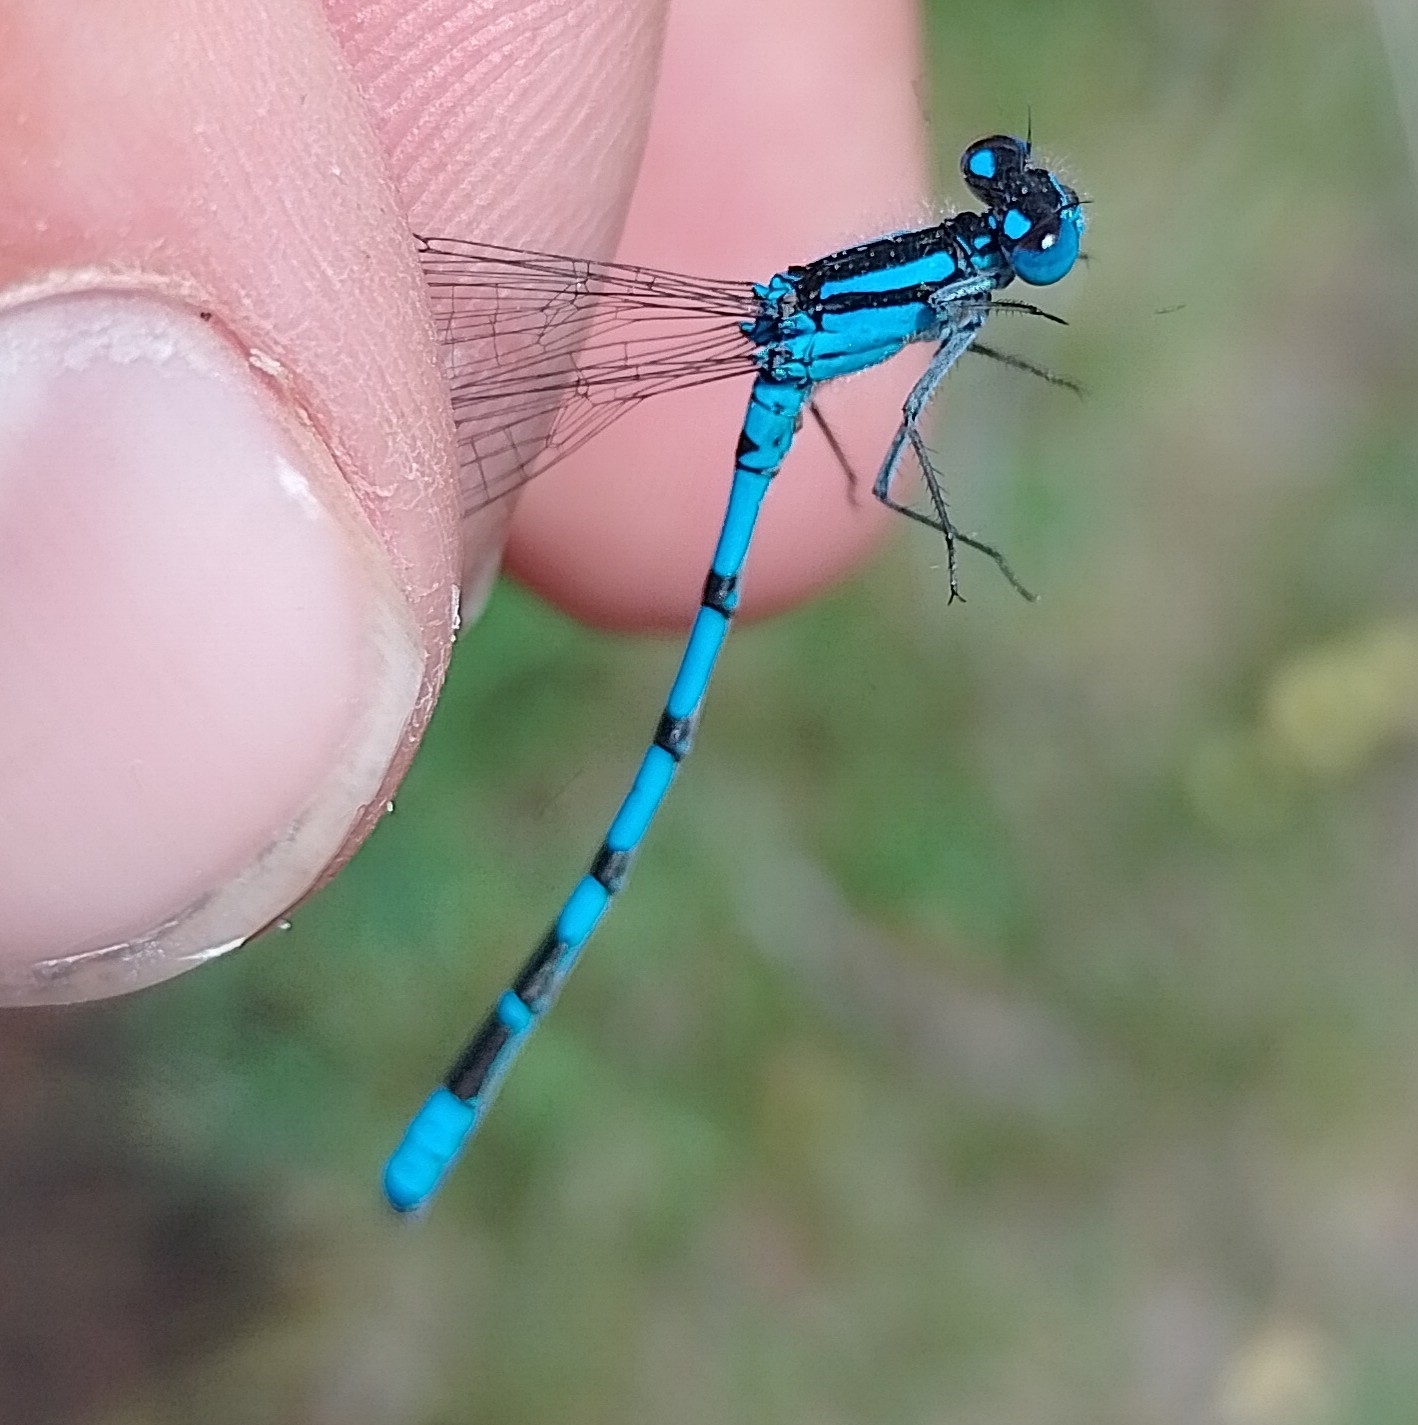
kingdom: Animalia
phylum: Arthropoda
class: Insecta
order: Odonata
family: Coenagrionidae
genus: Enallagma
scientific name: Enallagma cyathigerum
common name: Common blue damselfly
